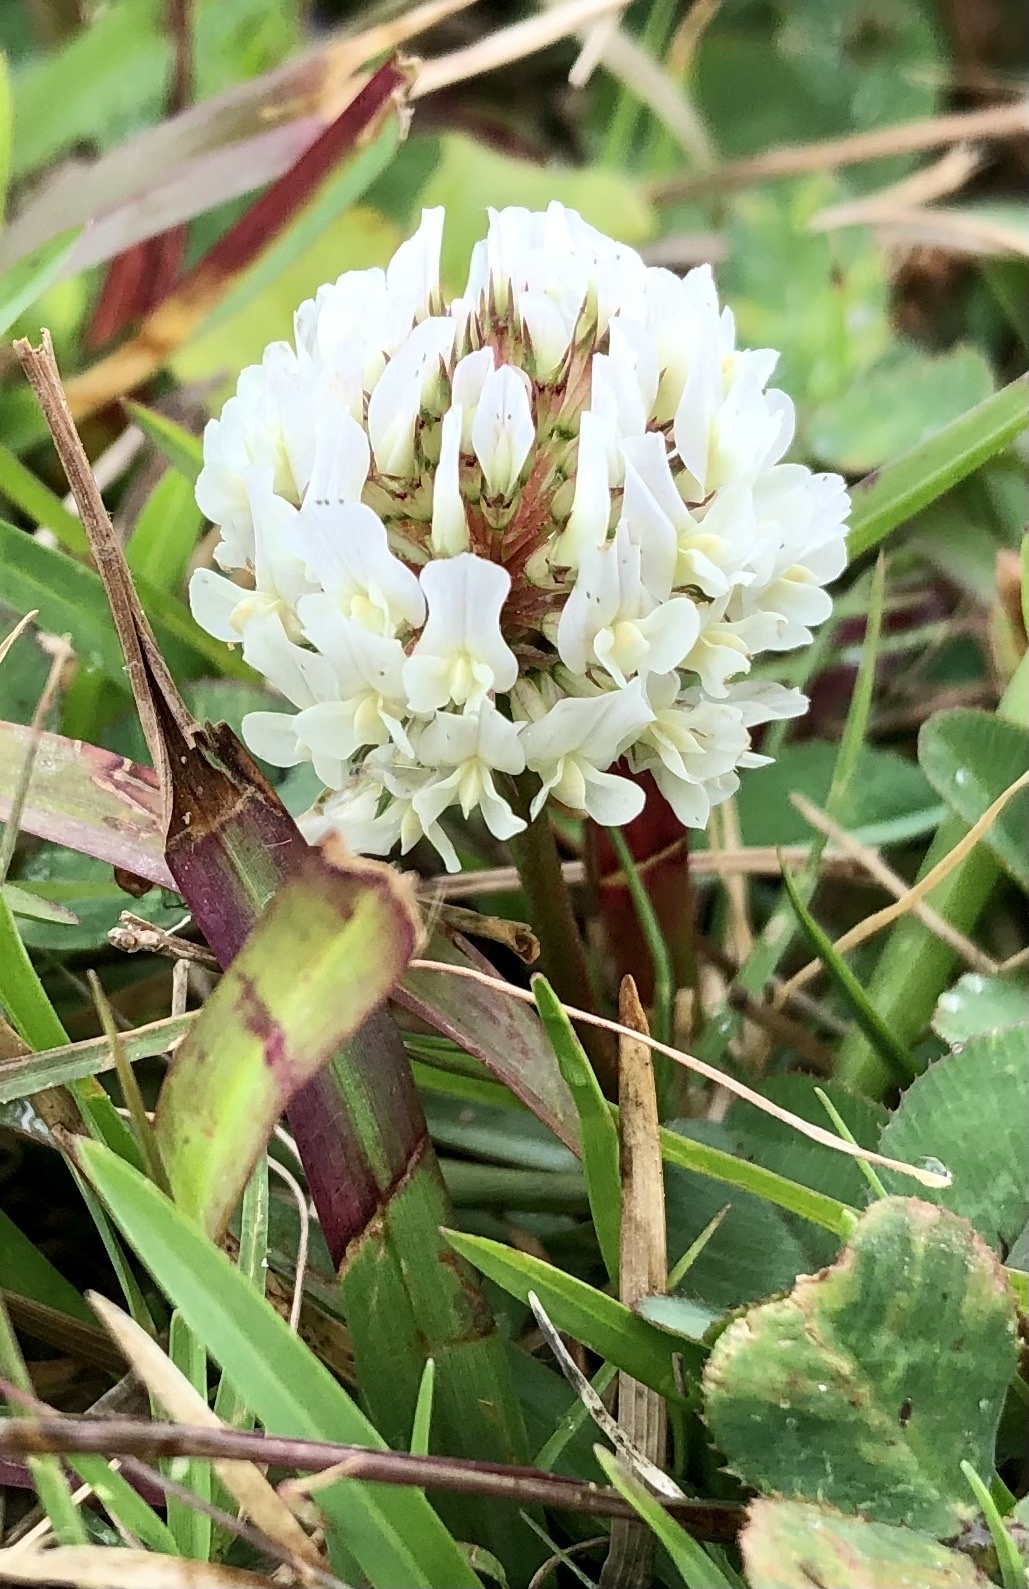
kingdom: Plantae
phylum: Tracheophyta
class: Magnoliopsida
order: Fabales
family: Fabaceae
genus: Trifolium
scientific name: Trifolium repens
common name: White clover
